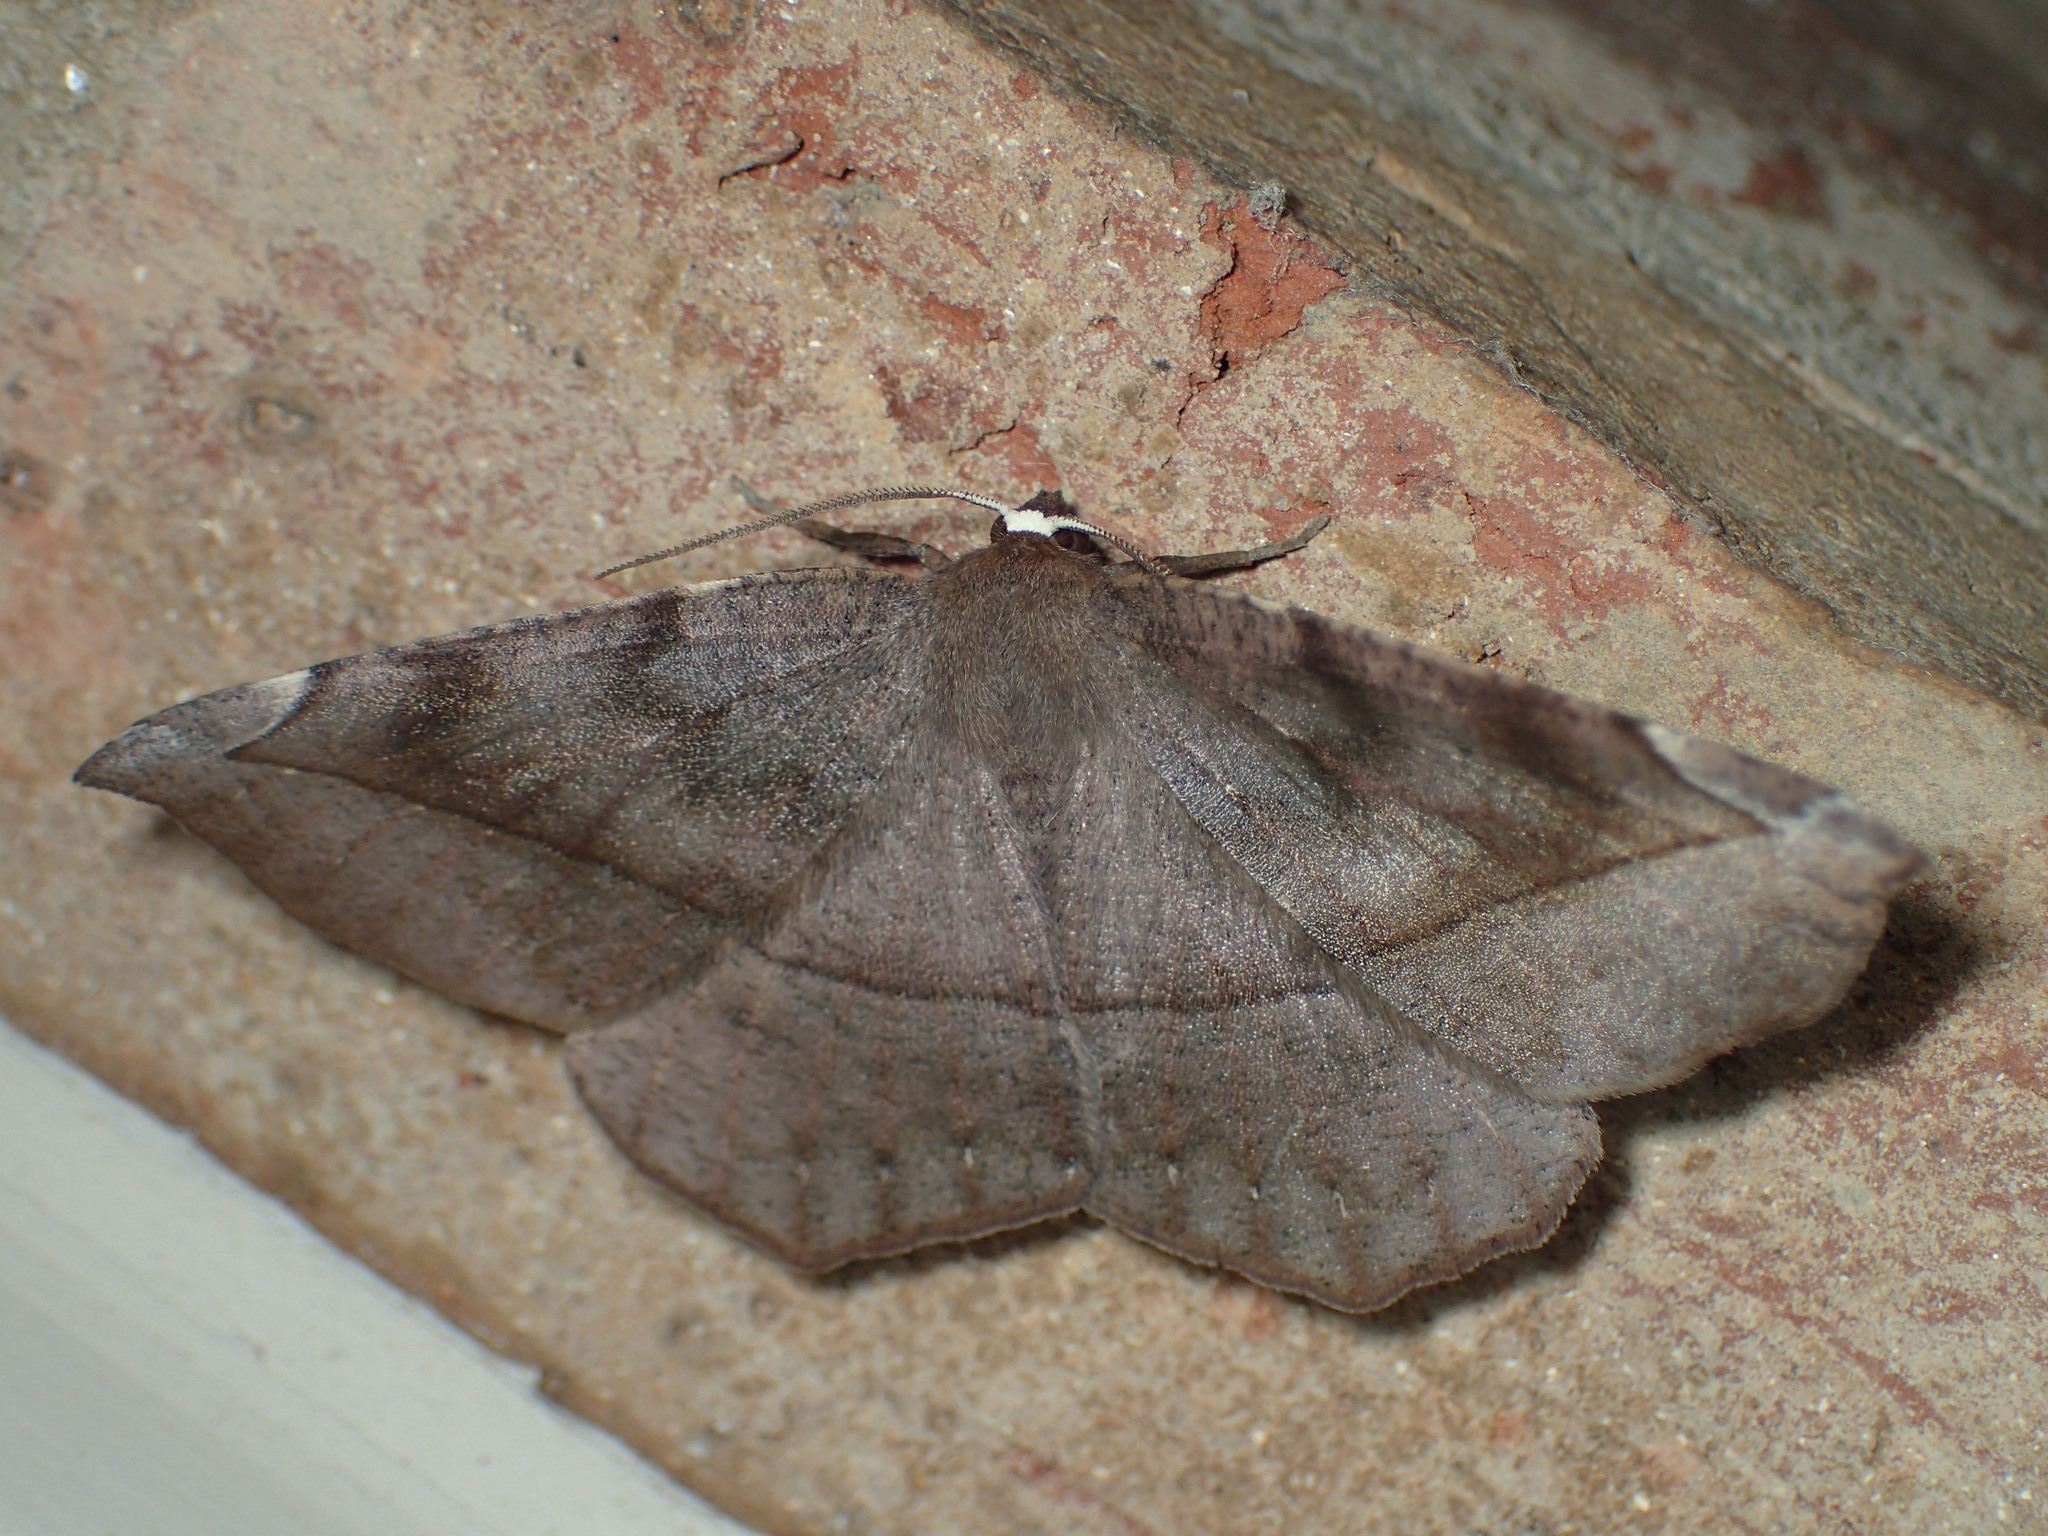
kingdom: Animalia
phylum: Arthropoda
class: Insecta
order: Lepidoptera
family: Geometridae
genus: Eutrapela
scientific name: Eutrapela clemataria
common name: Curved-toothed geometer
